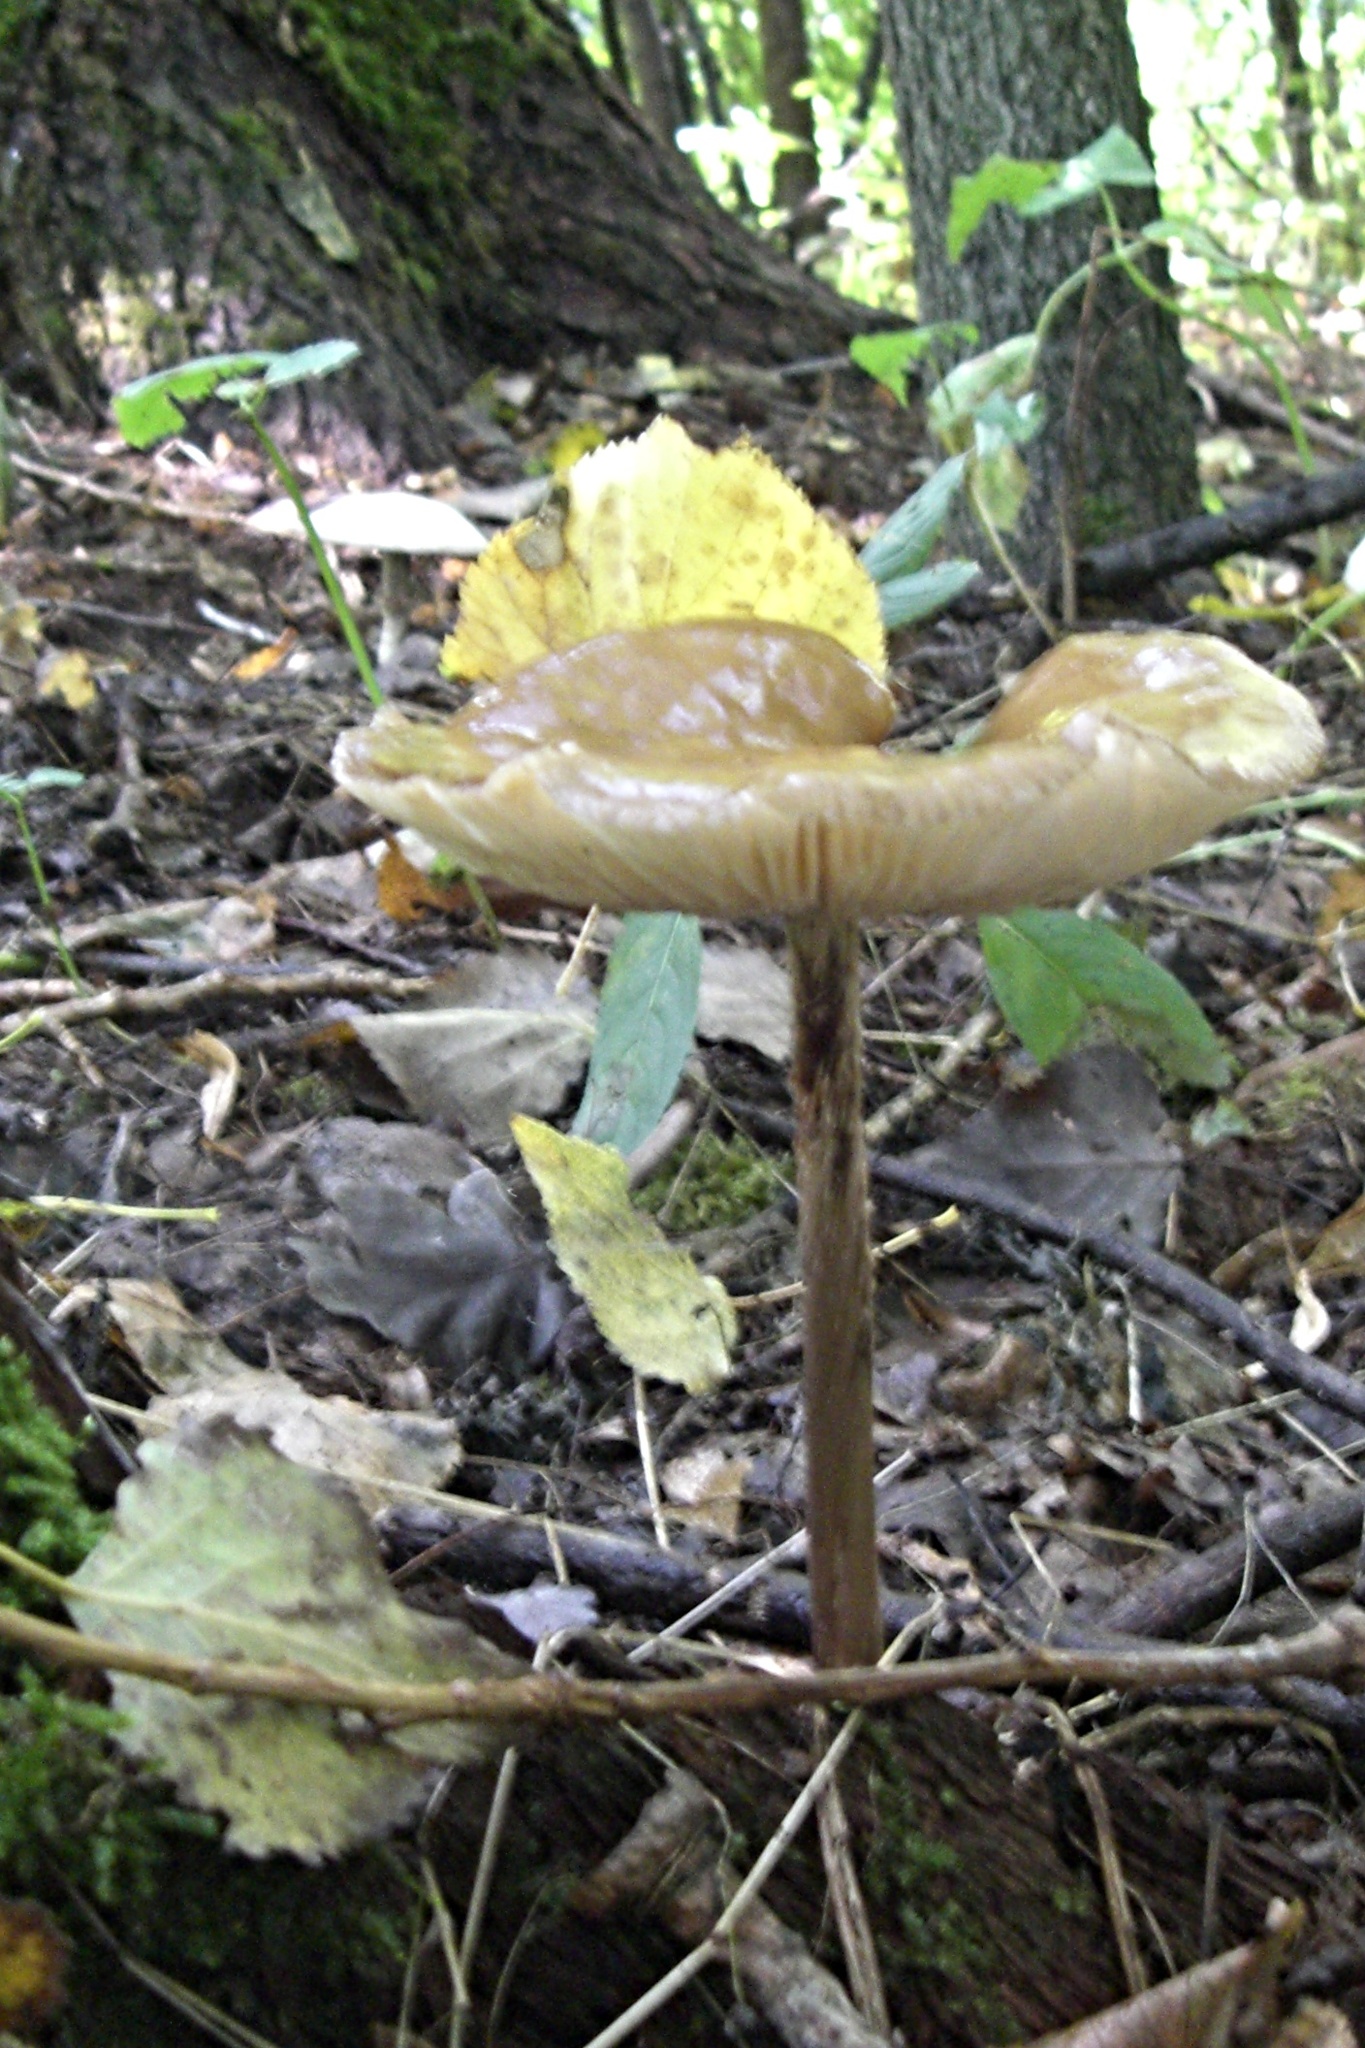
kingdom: Fungi
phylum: Basidiomycota
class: Agaricomycetes
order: Agaricales
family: Physalacriaceae
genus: Hymenopellis
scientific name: Hymenopellis radicata
